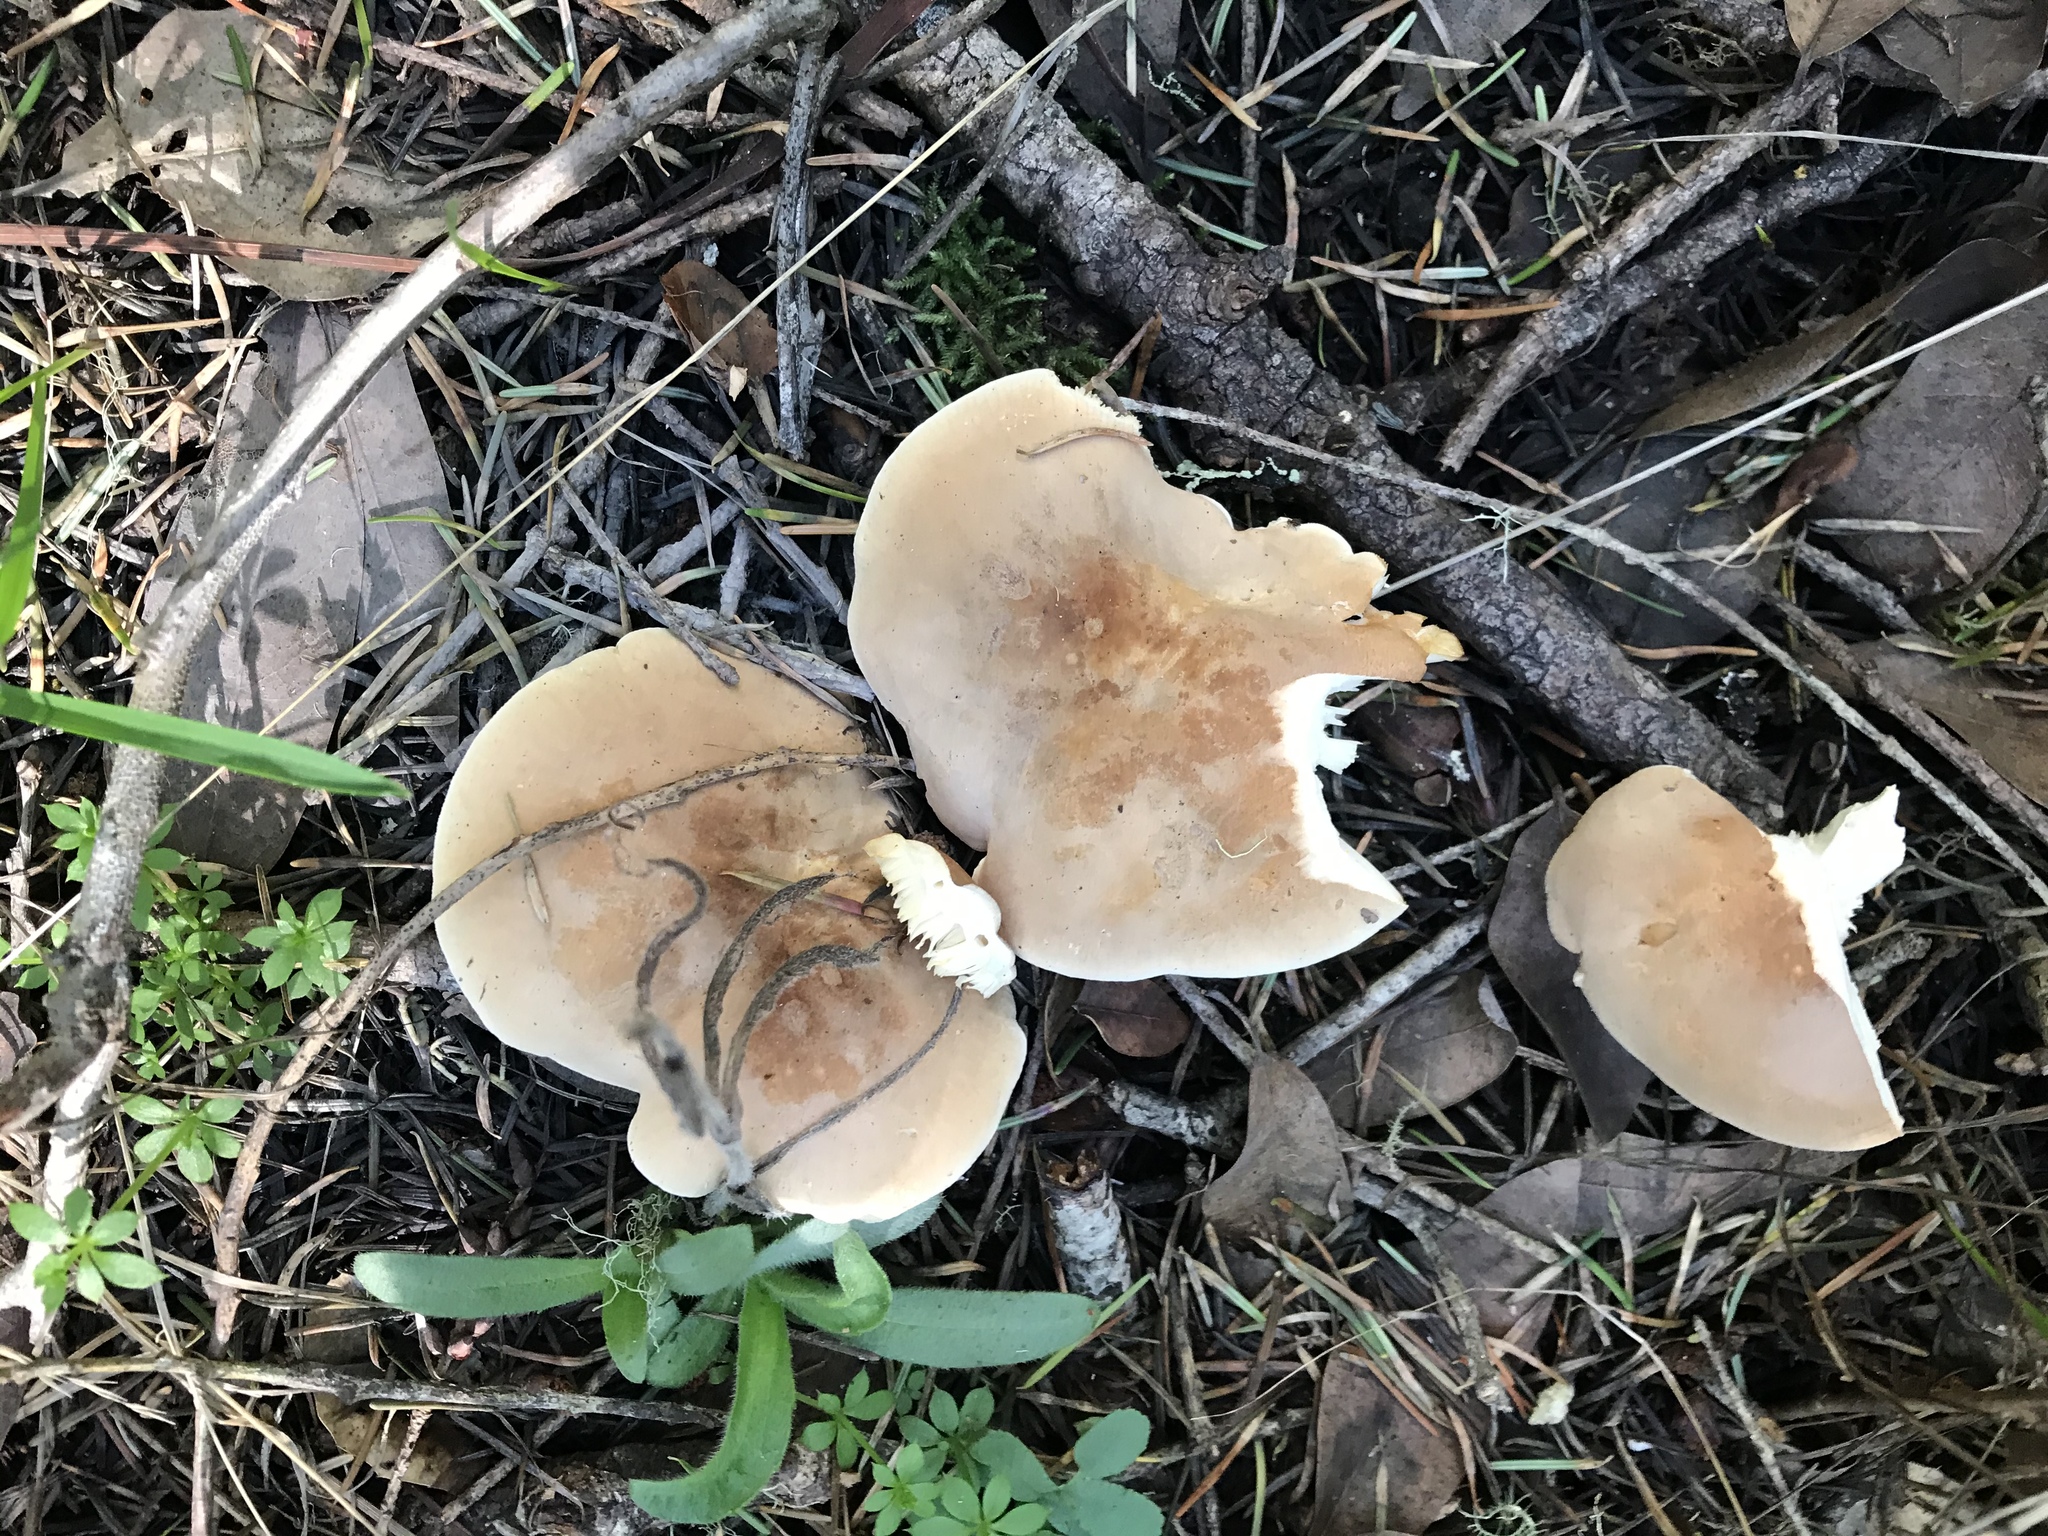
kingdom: Fungi
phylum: Basidiomycota
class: Agaricomycetes
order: Agaricales
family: Tricholomataceae
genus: Leucopaxillus
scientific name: Leucopaxillus gentianeus
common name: Bitter funnel
